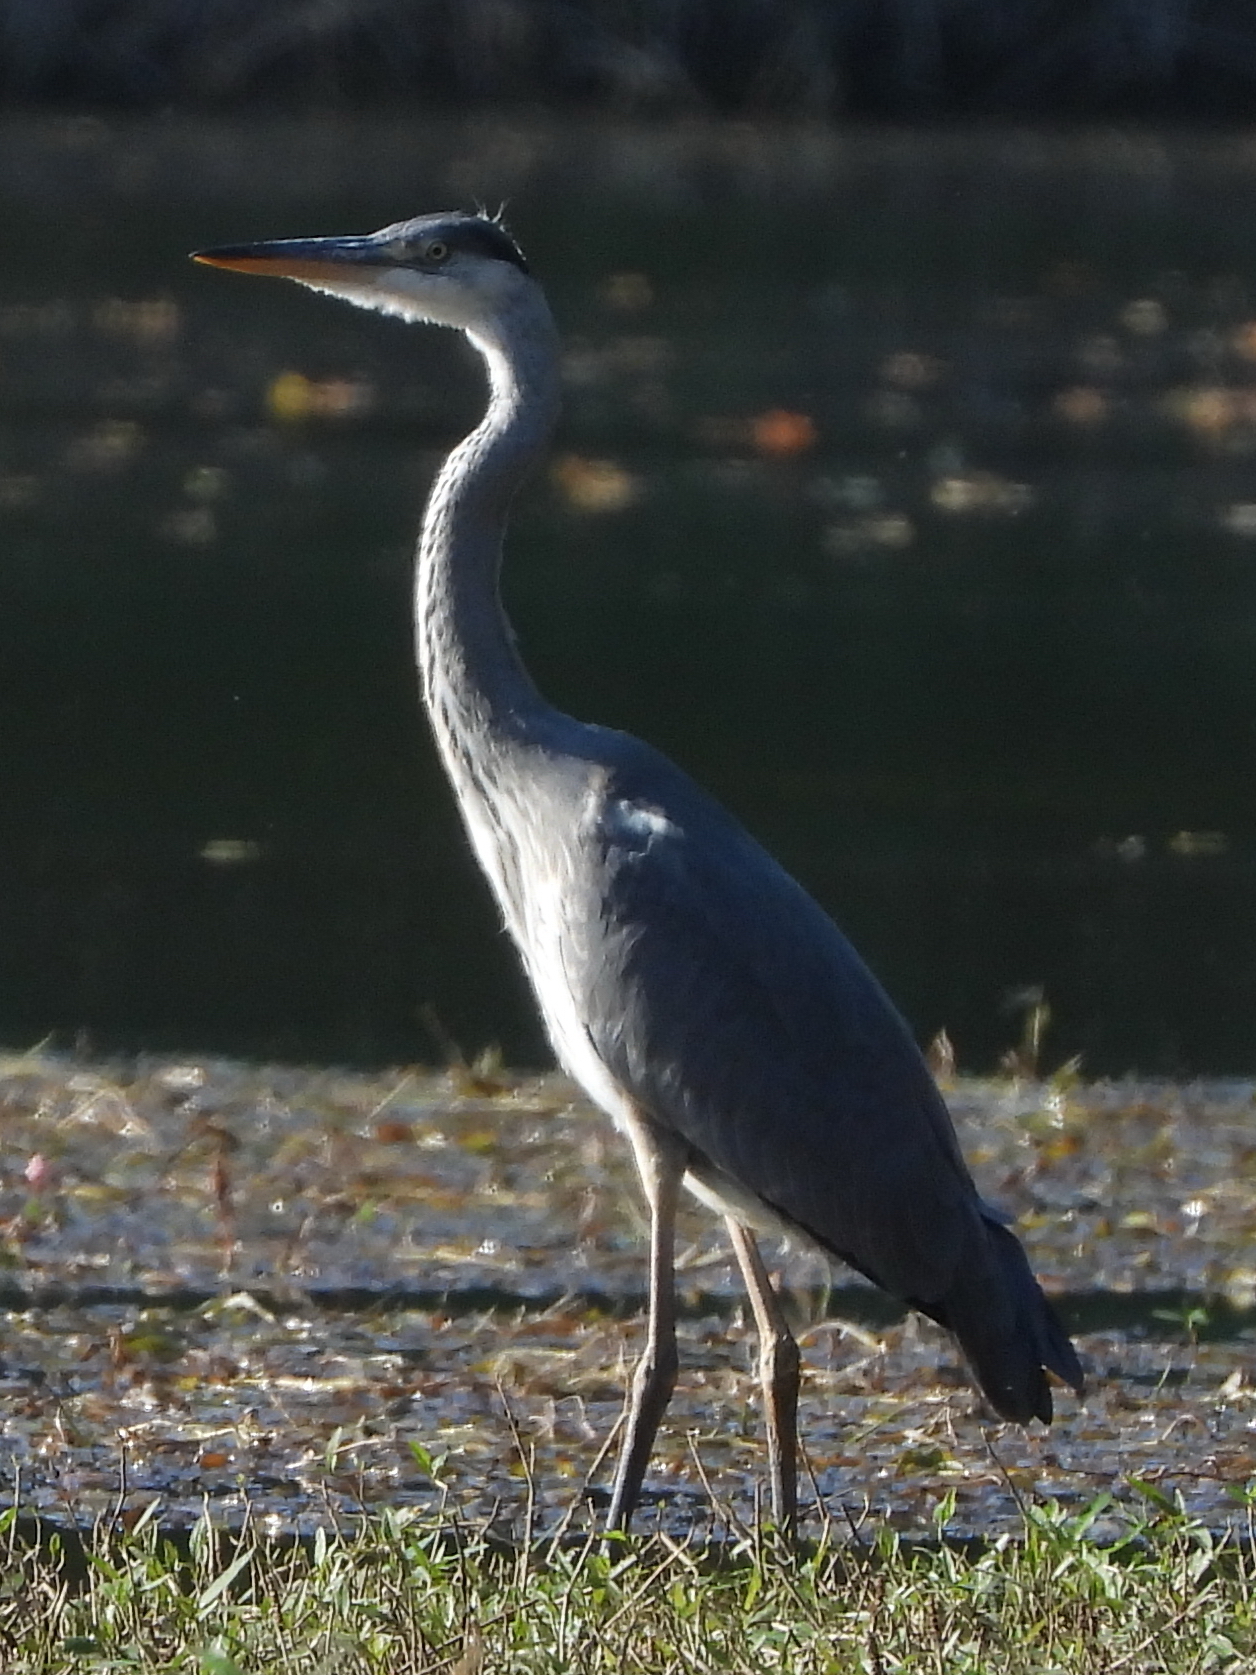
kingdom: Animalia
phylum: Chordata
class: Aves
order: Pelecaniformes
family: Ardeidae
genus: Ardea
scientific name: Ardea cinerea
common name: Grey heron
